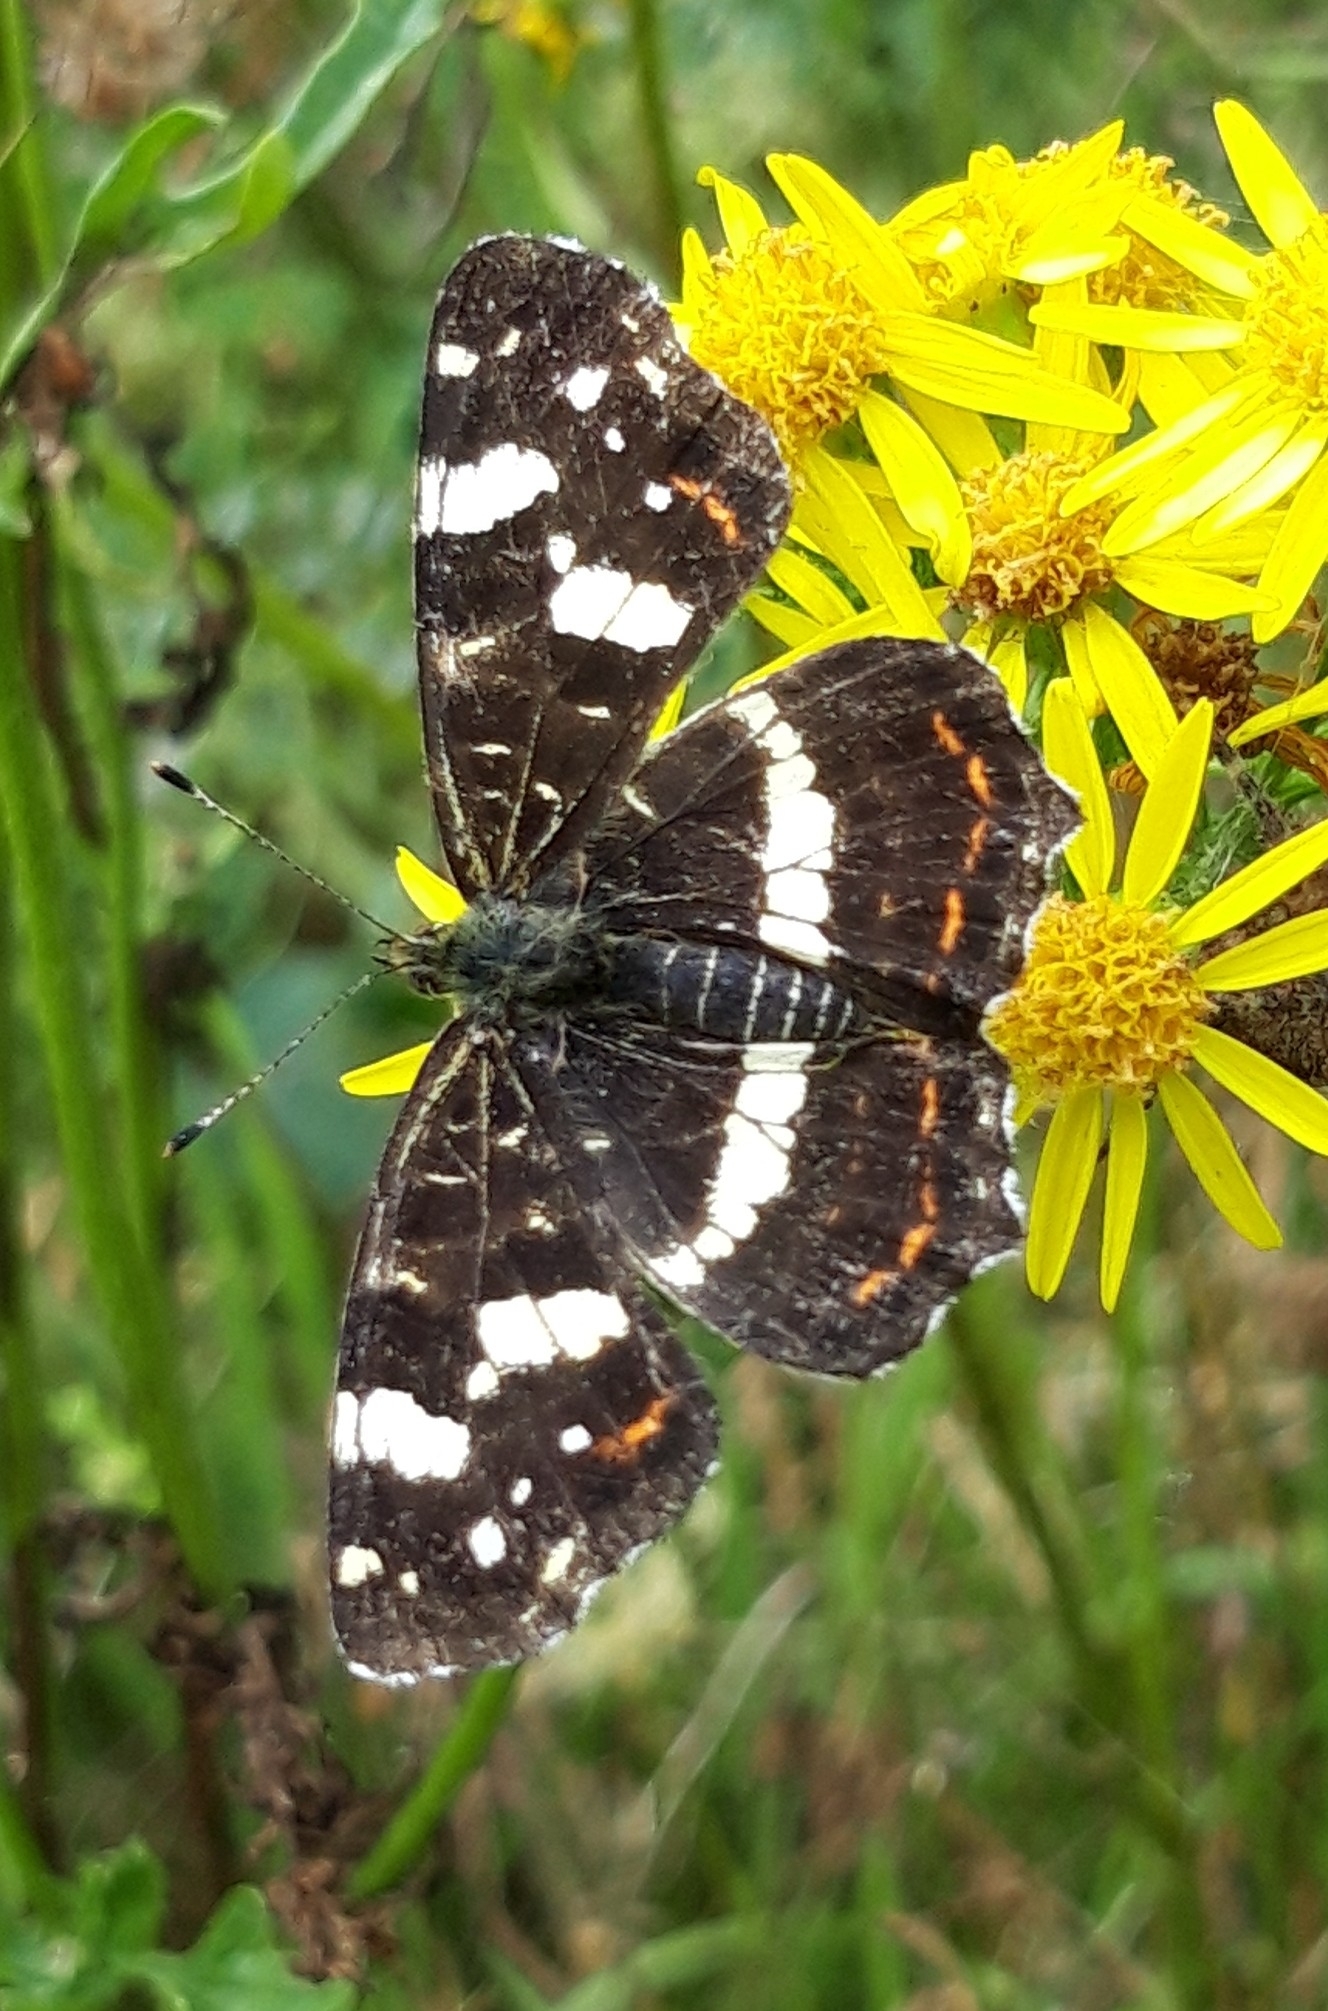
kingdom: Animalia
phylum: Arthropoda
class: Insecta
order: Lepidoptera
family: Nymphalidae
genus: Araschnia
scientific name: Araschnia levana
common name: Map butterfly
